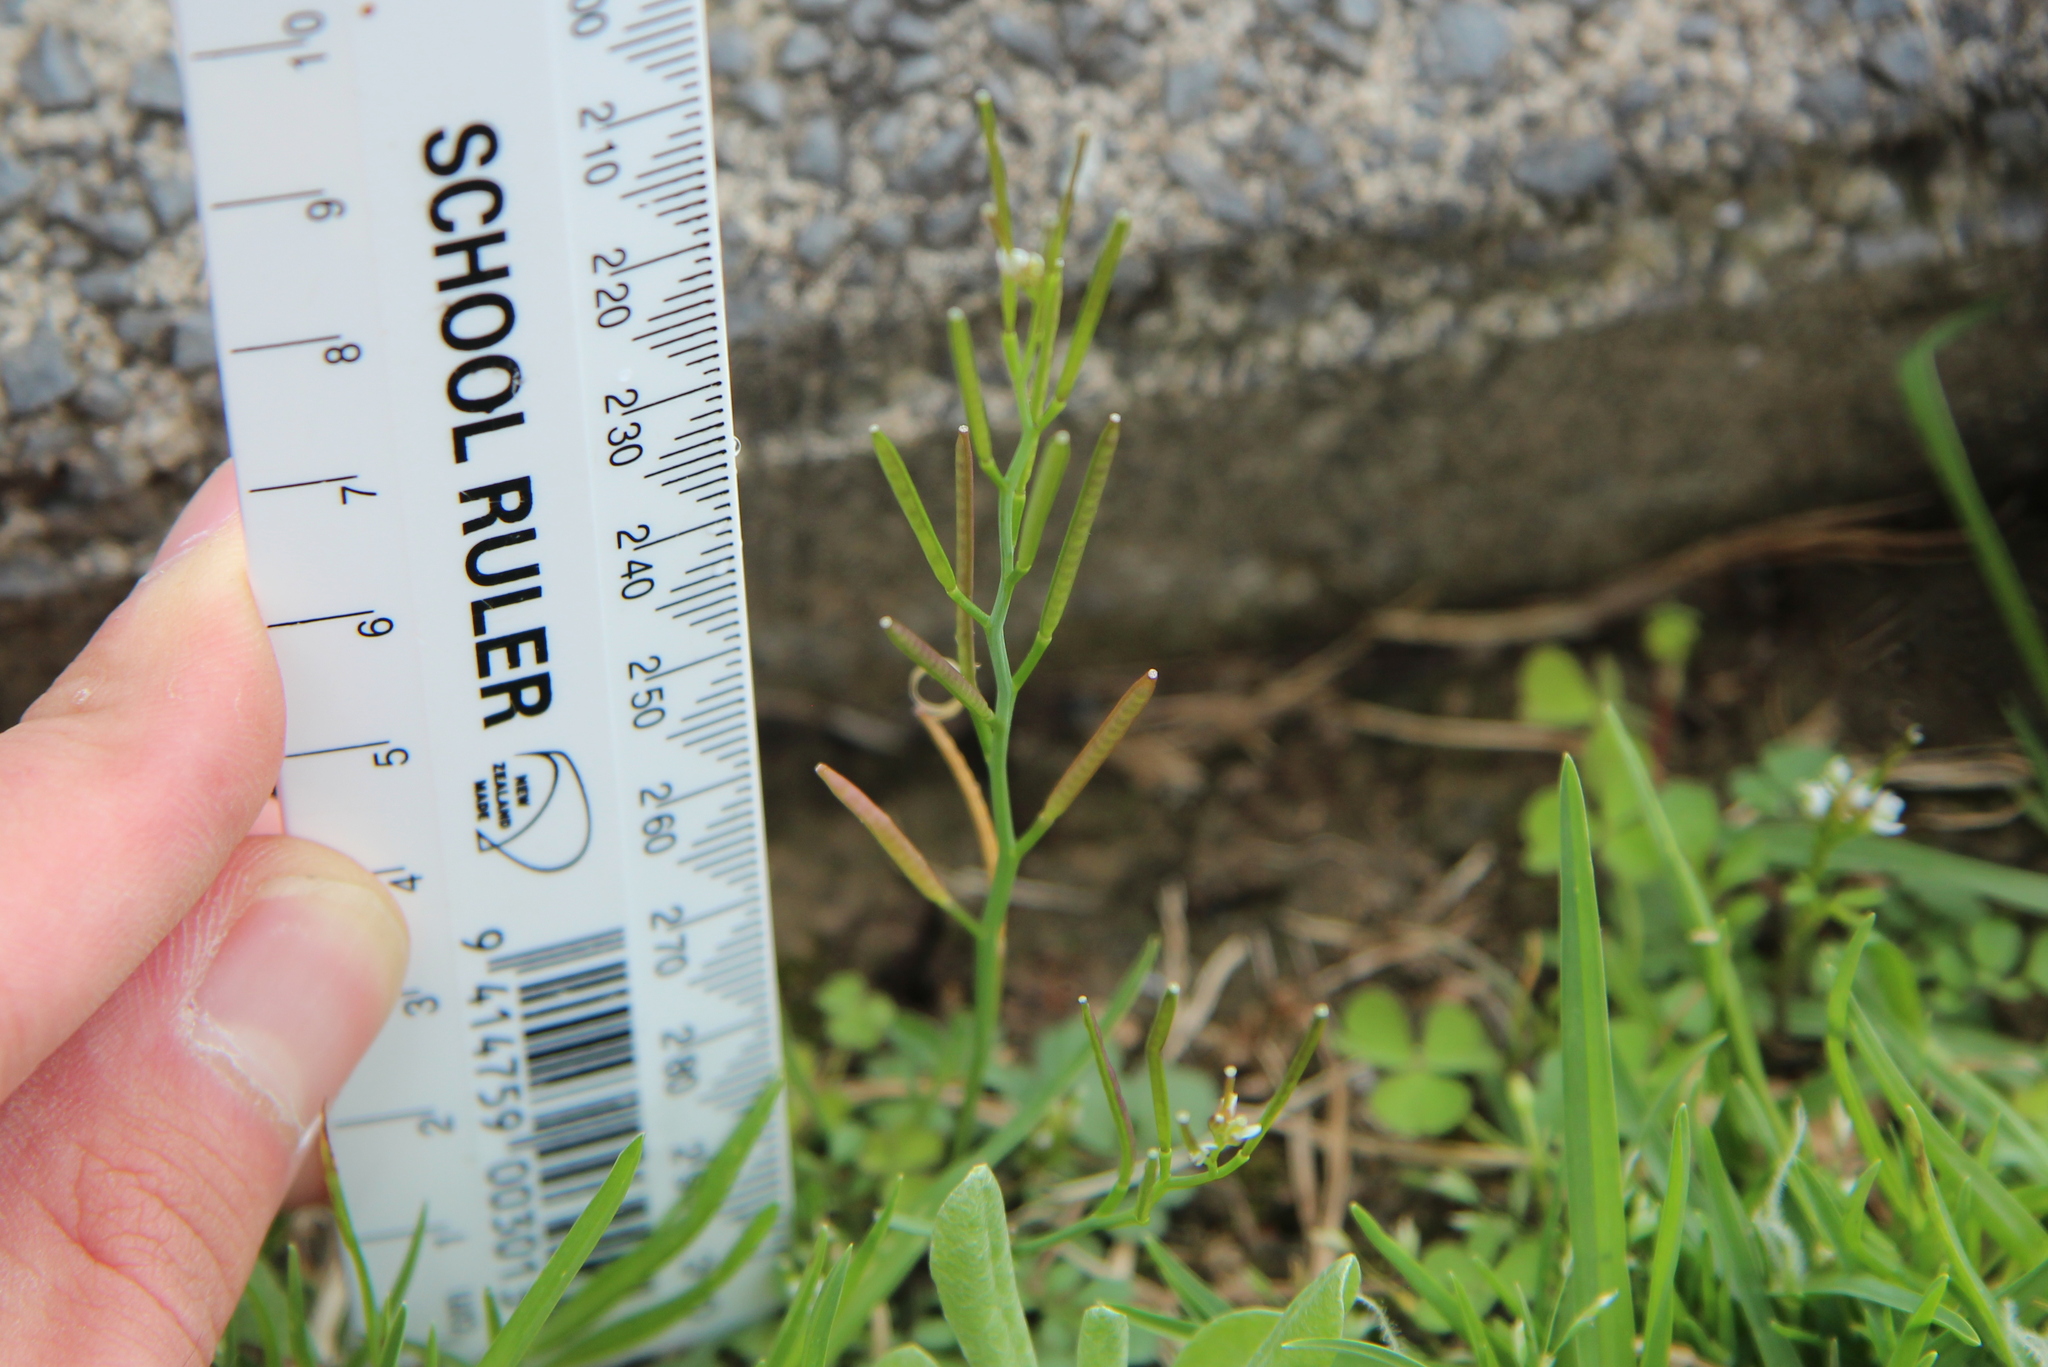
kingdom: Plantae
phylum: Tracheophyta
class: Magnoliopsida
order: Brassicales
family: Brassicaceae
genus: Cardamine
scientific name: Cardamine flexuosa
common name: Woodland bittercress
